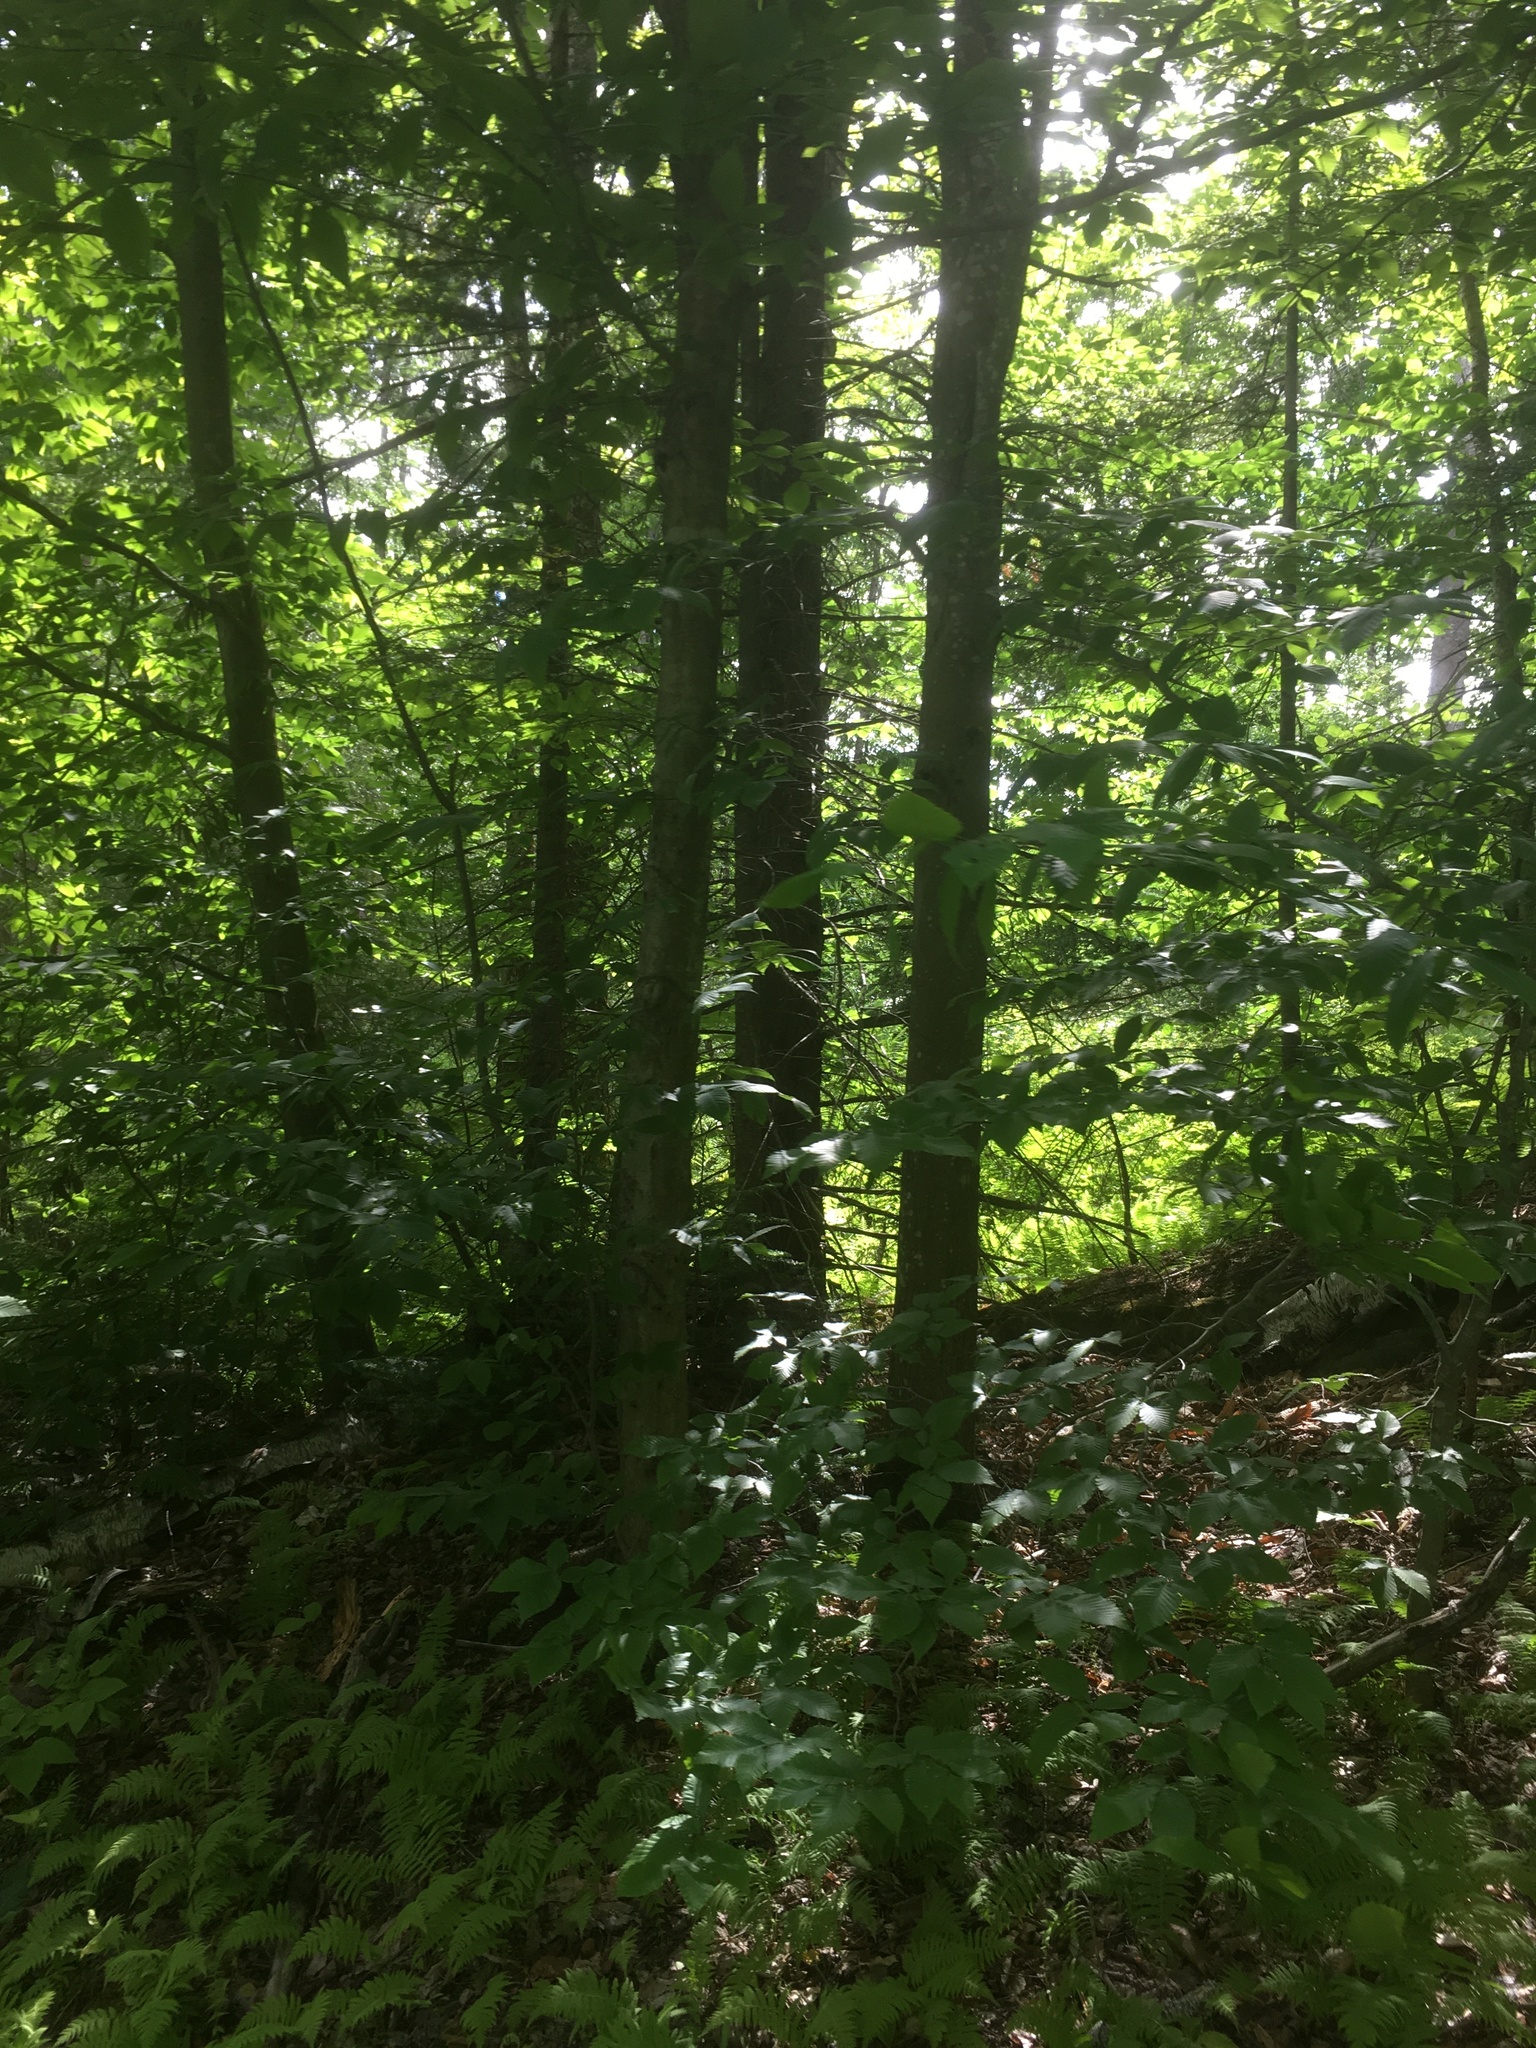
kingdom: Plantae
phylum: Tracheophyta
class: Magnoliopsida
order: Fagales
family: Fagaceae
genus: Fagus
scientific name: Fagus grandifolia
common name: American beech
